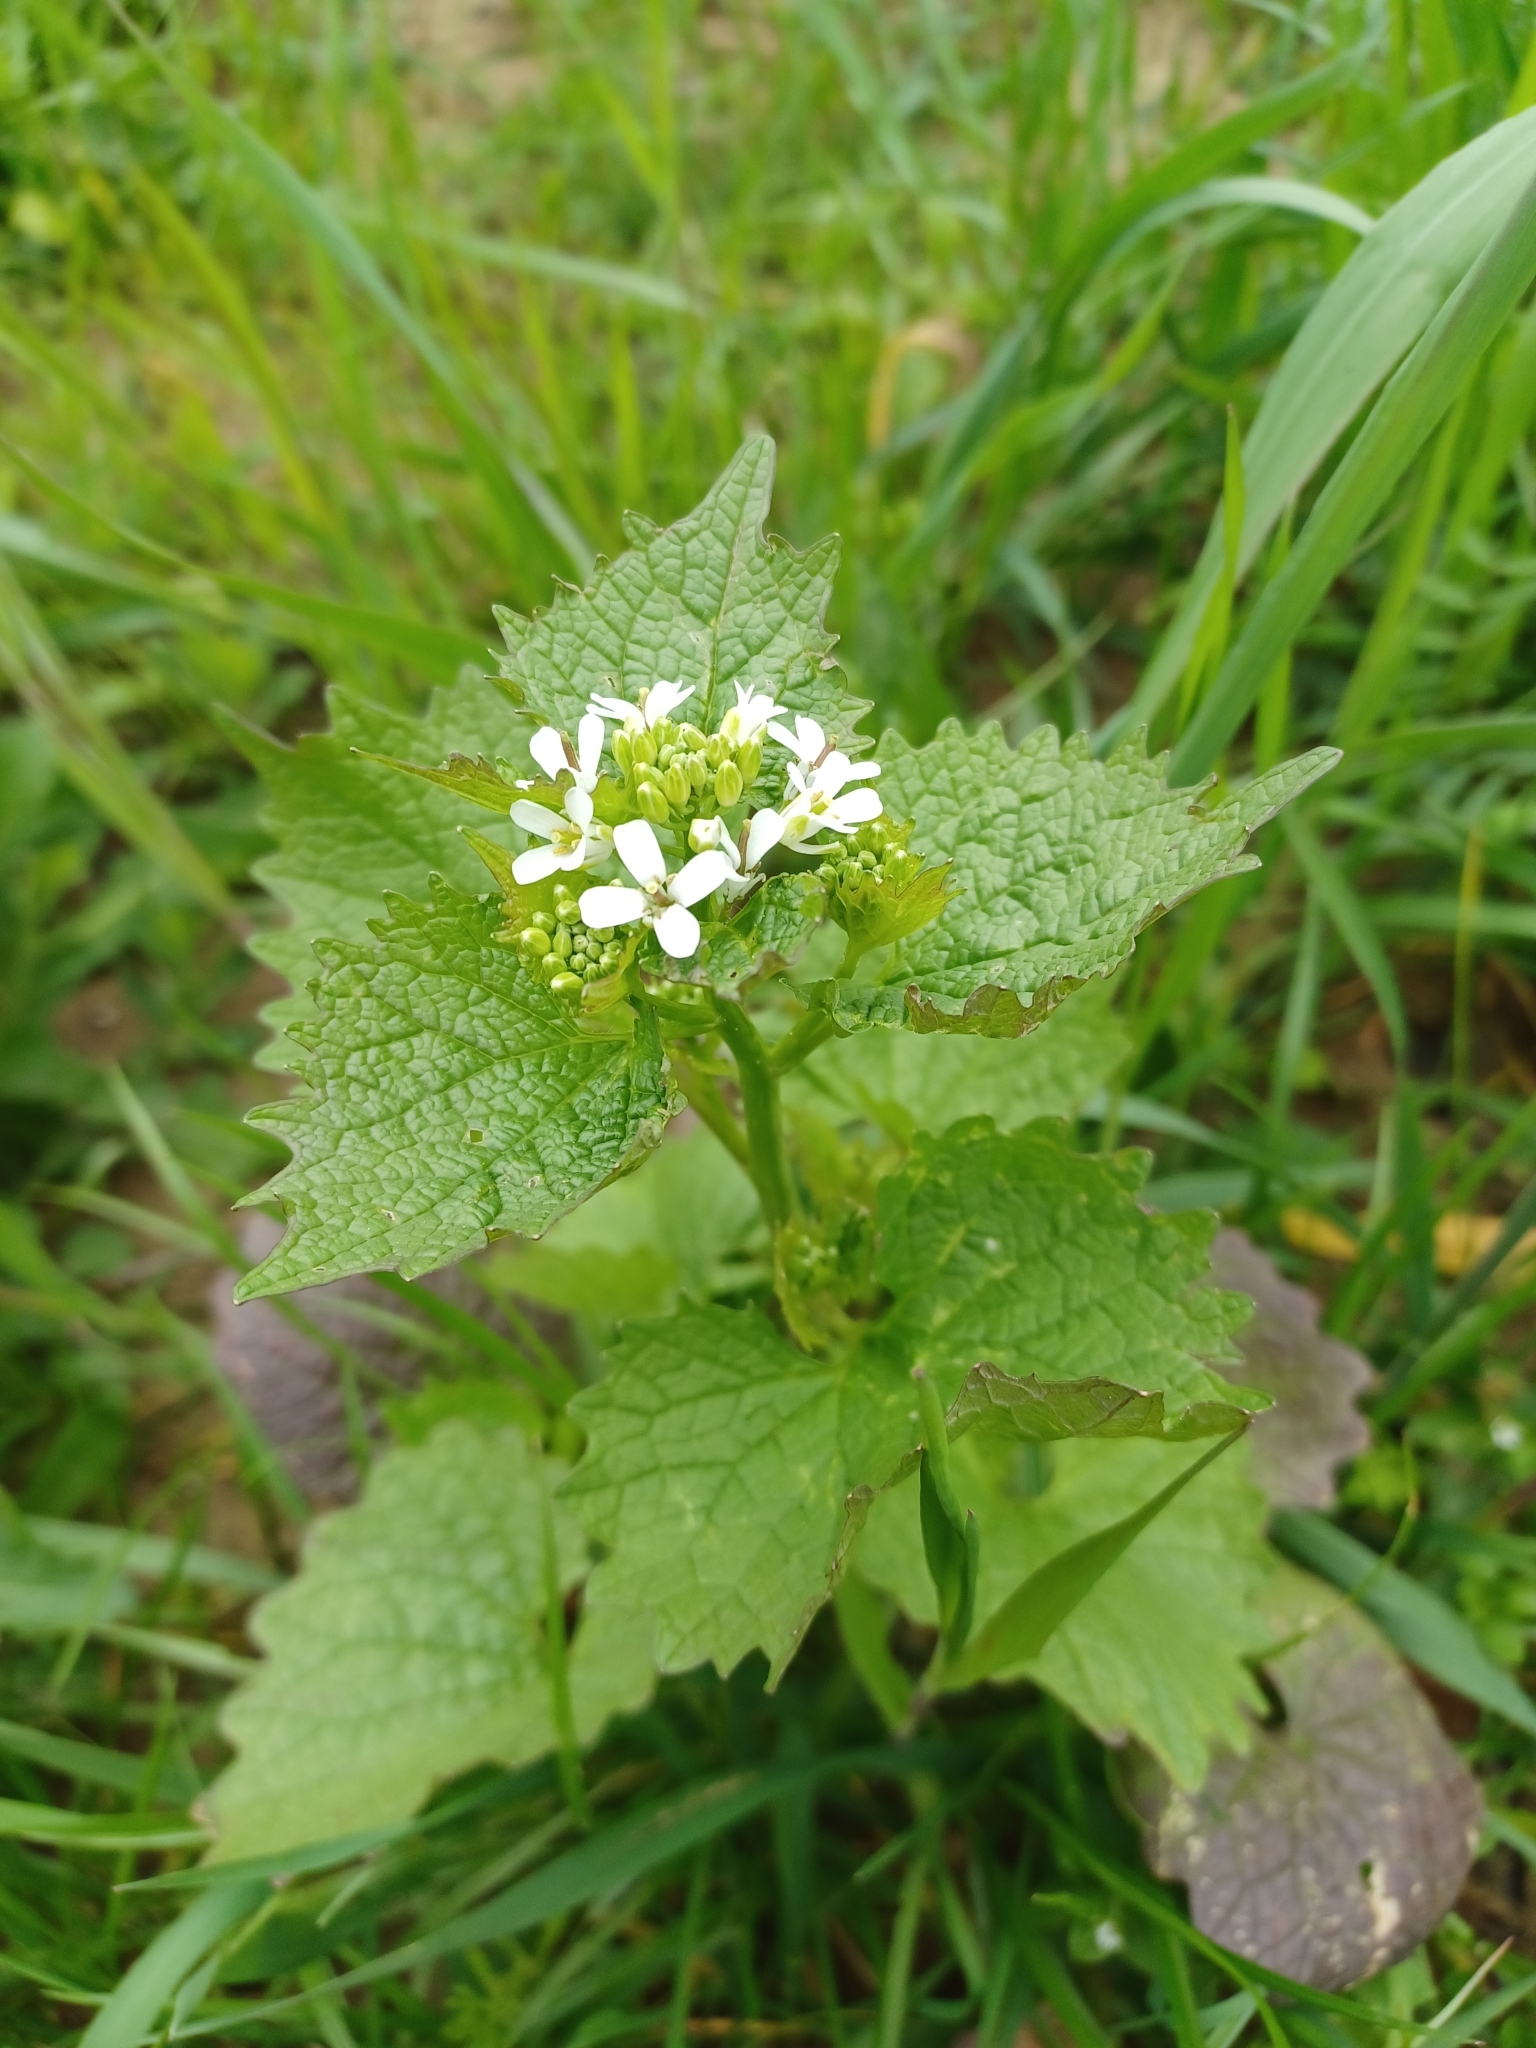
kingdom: Plantae
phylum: Tracheophyta
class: Magnoliopsida
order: Brassicales
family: Brassicaceae
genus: Alliaria
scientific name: Alliaria petiolata
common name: Garlic mustard
